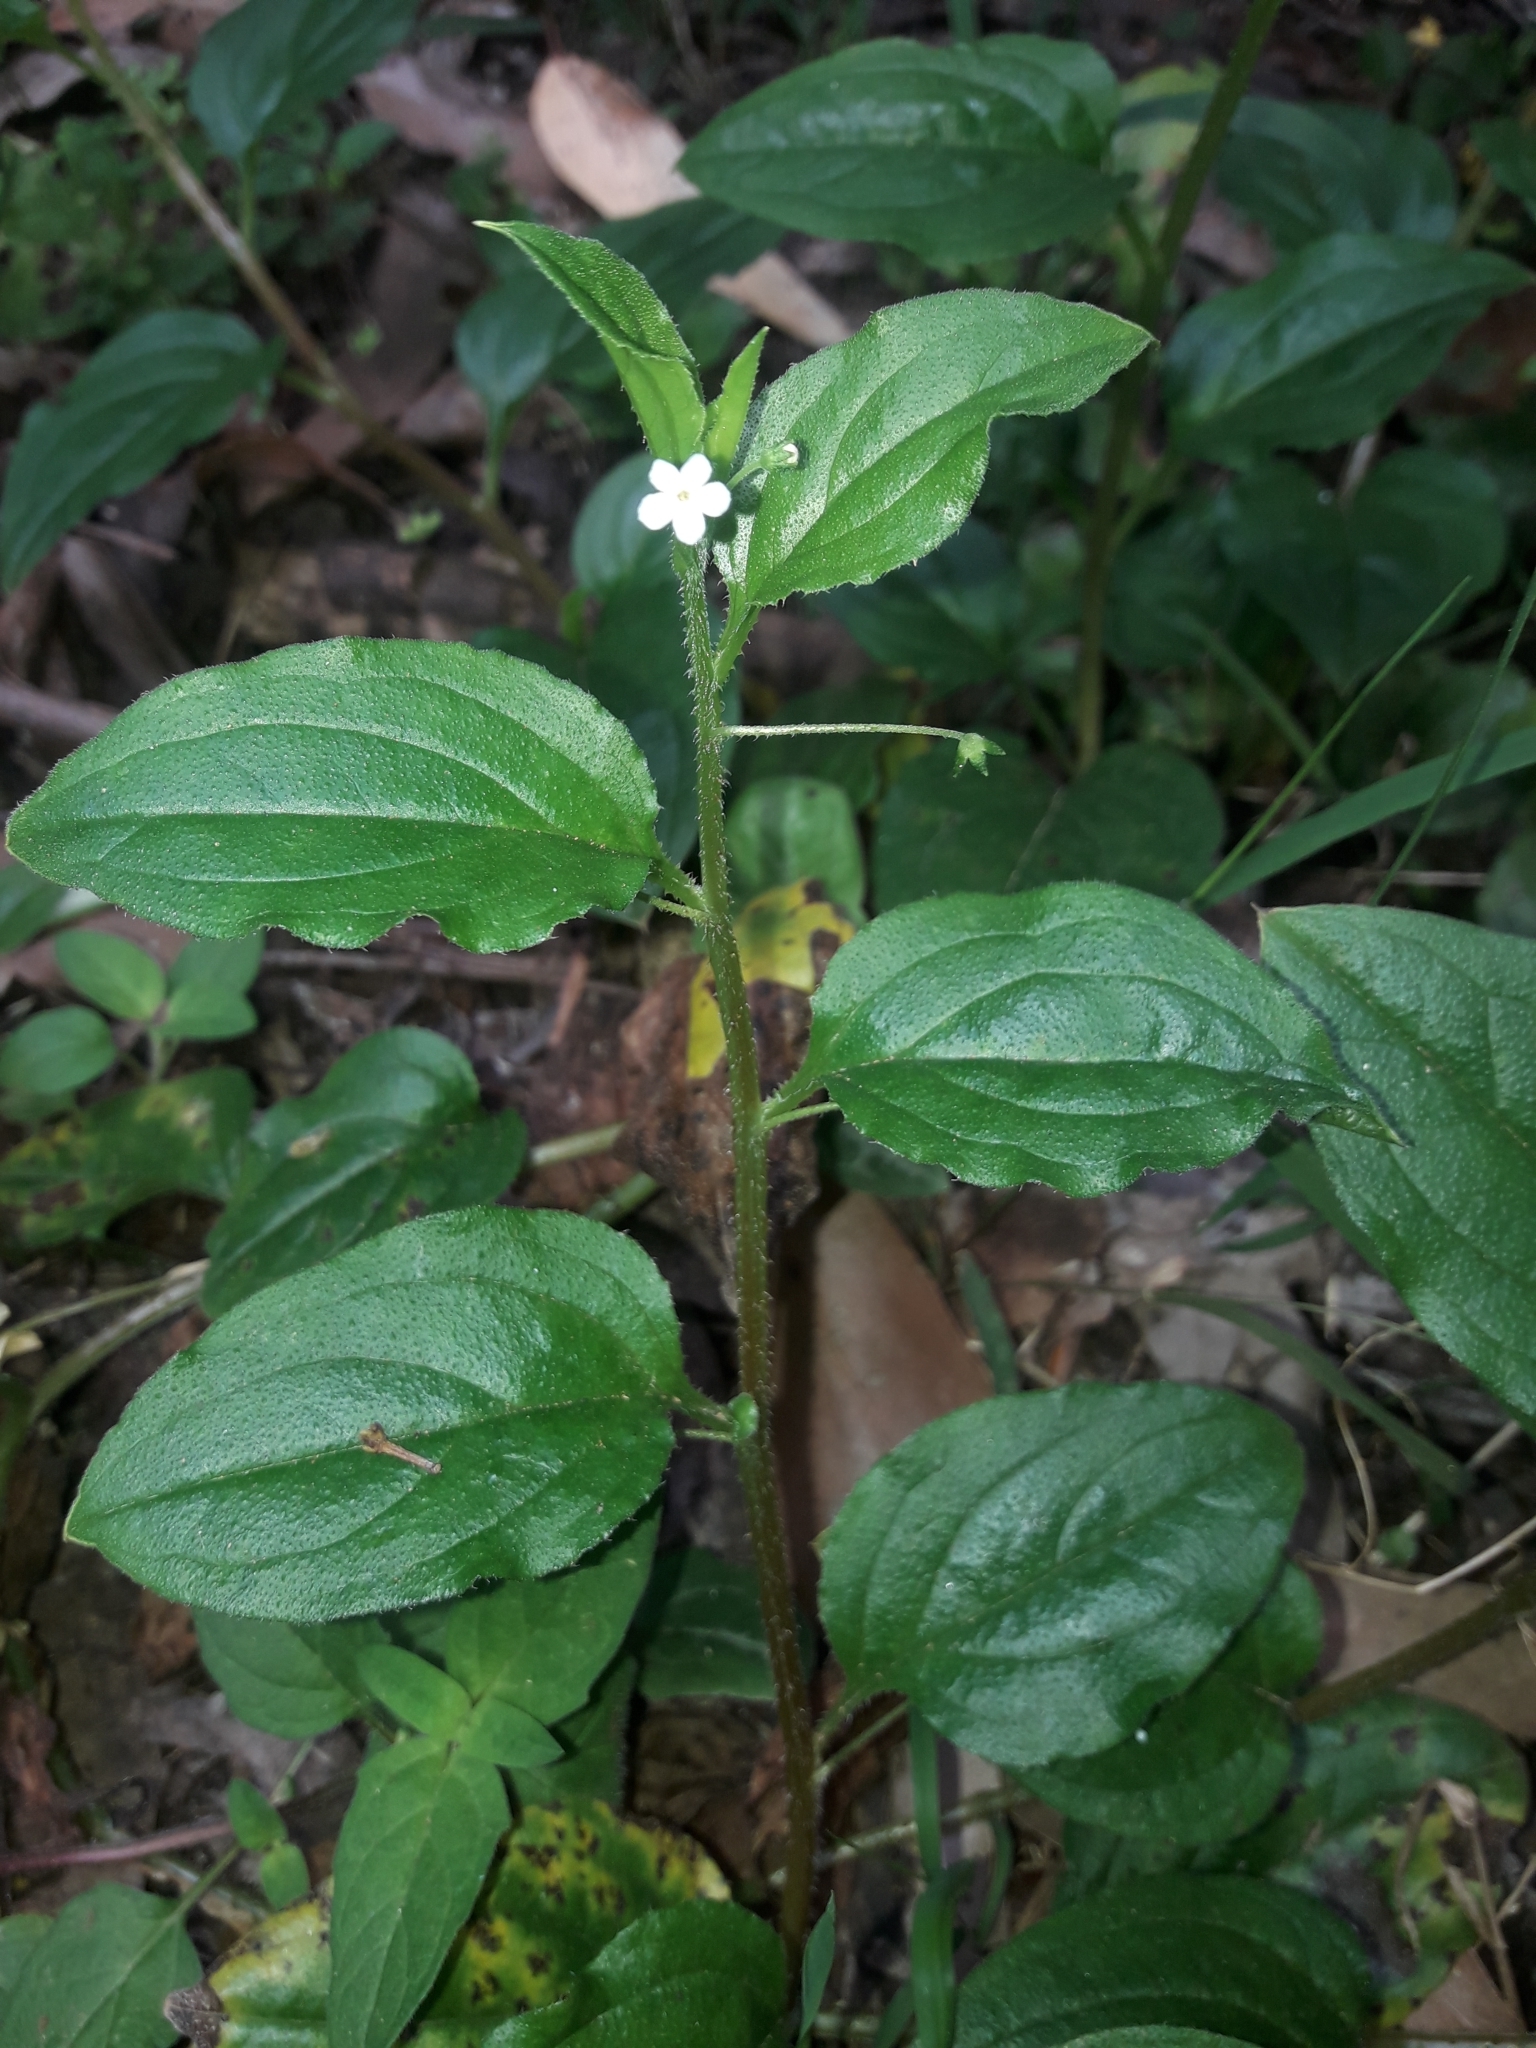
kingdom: Plantae
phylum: Tracheophyta
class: Magnoliopsida
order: Boraginales
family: Boraginaceae
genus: Hackelia
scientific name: Hackelia latifolia
